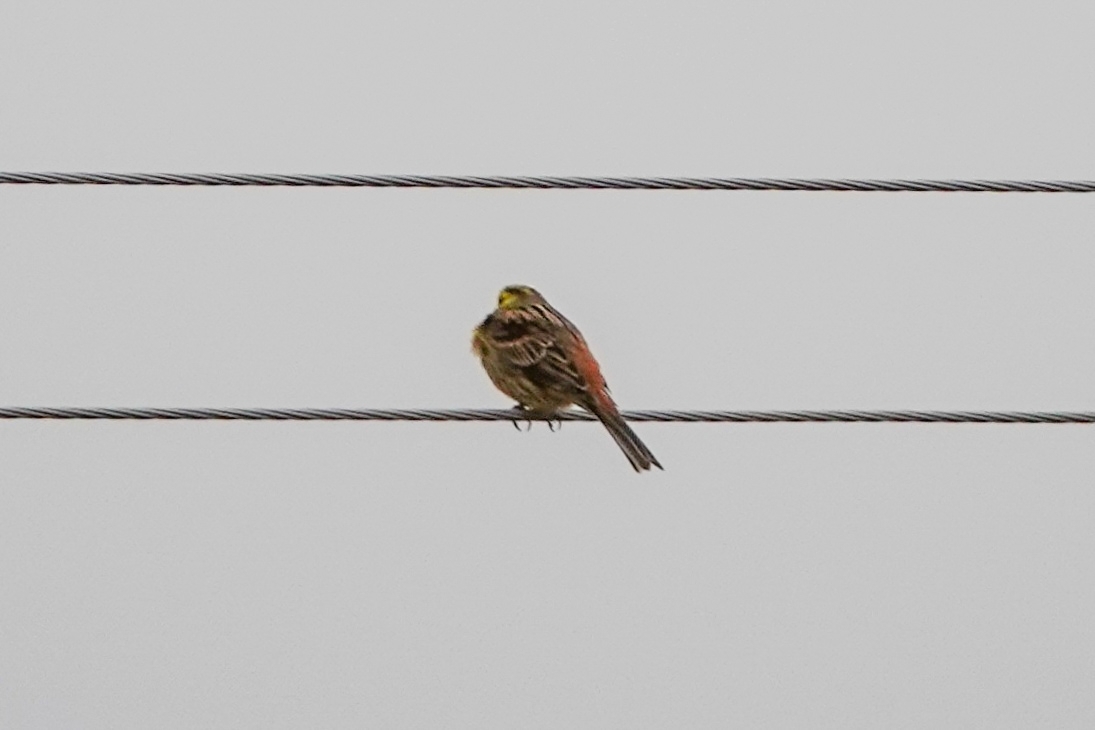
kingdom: Animalia
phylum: Chordata
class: Aves
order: Passeriformes
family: Emberizidae
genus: Emberiza
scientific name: Emberiza citrinella
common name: Yellowhammer
